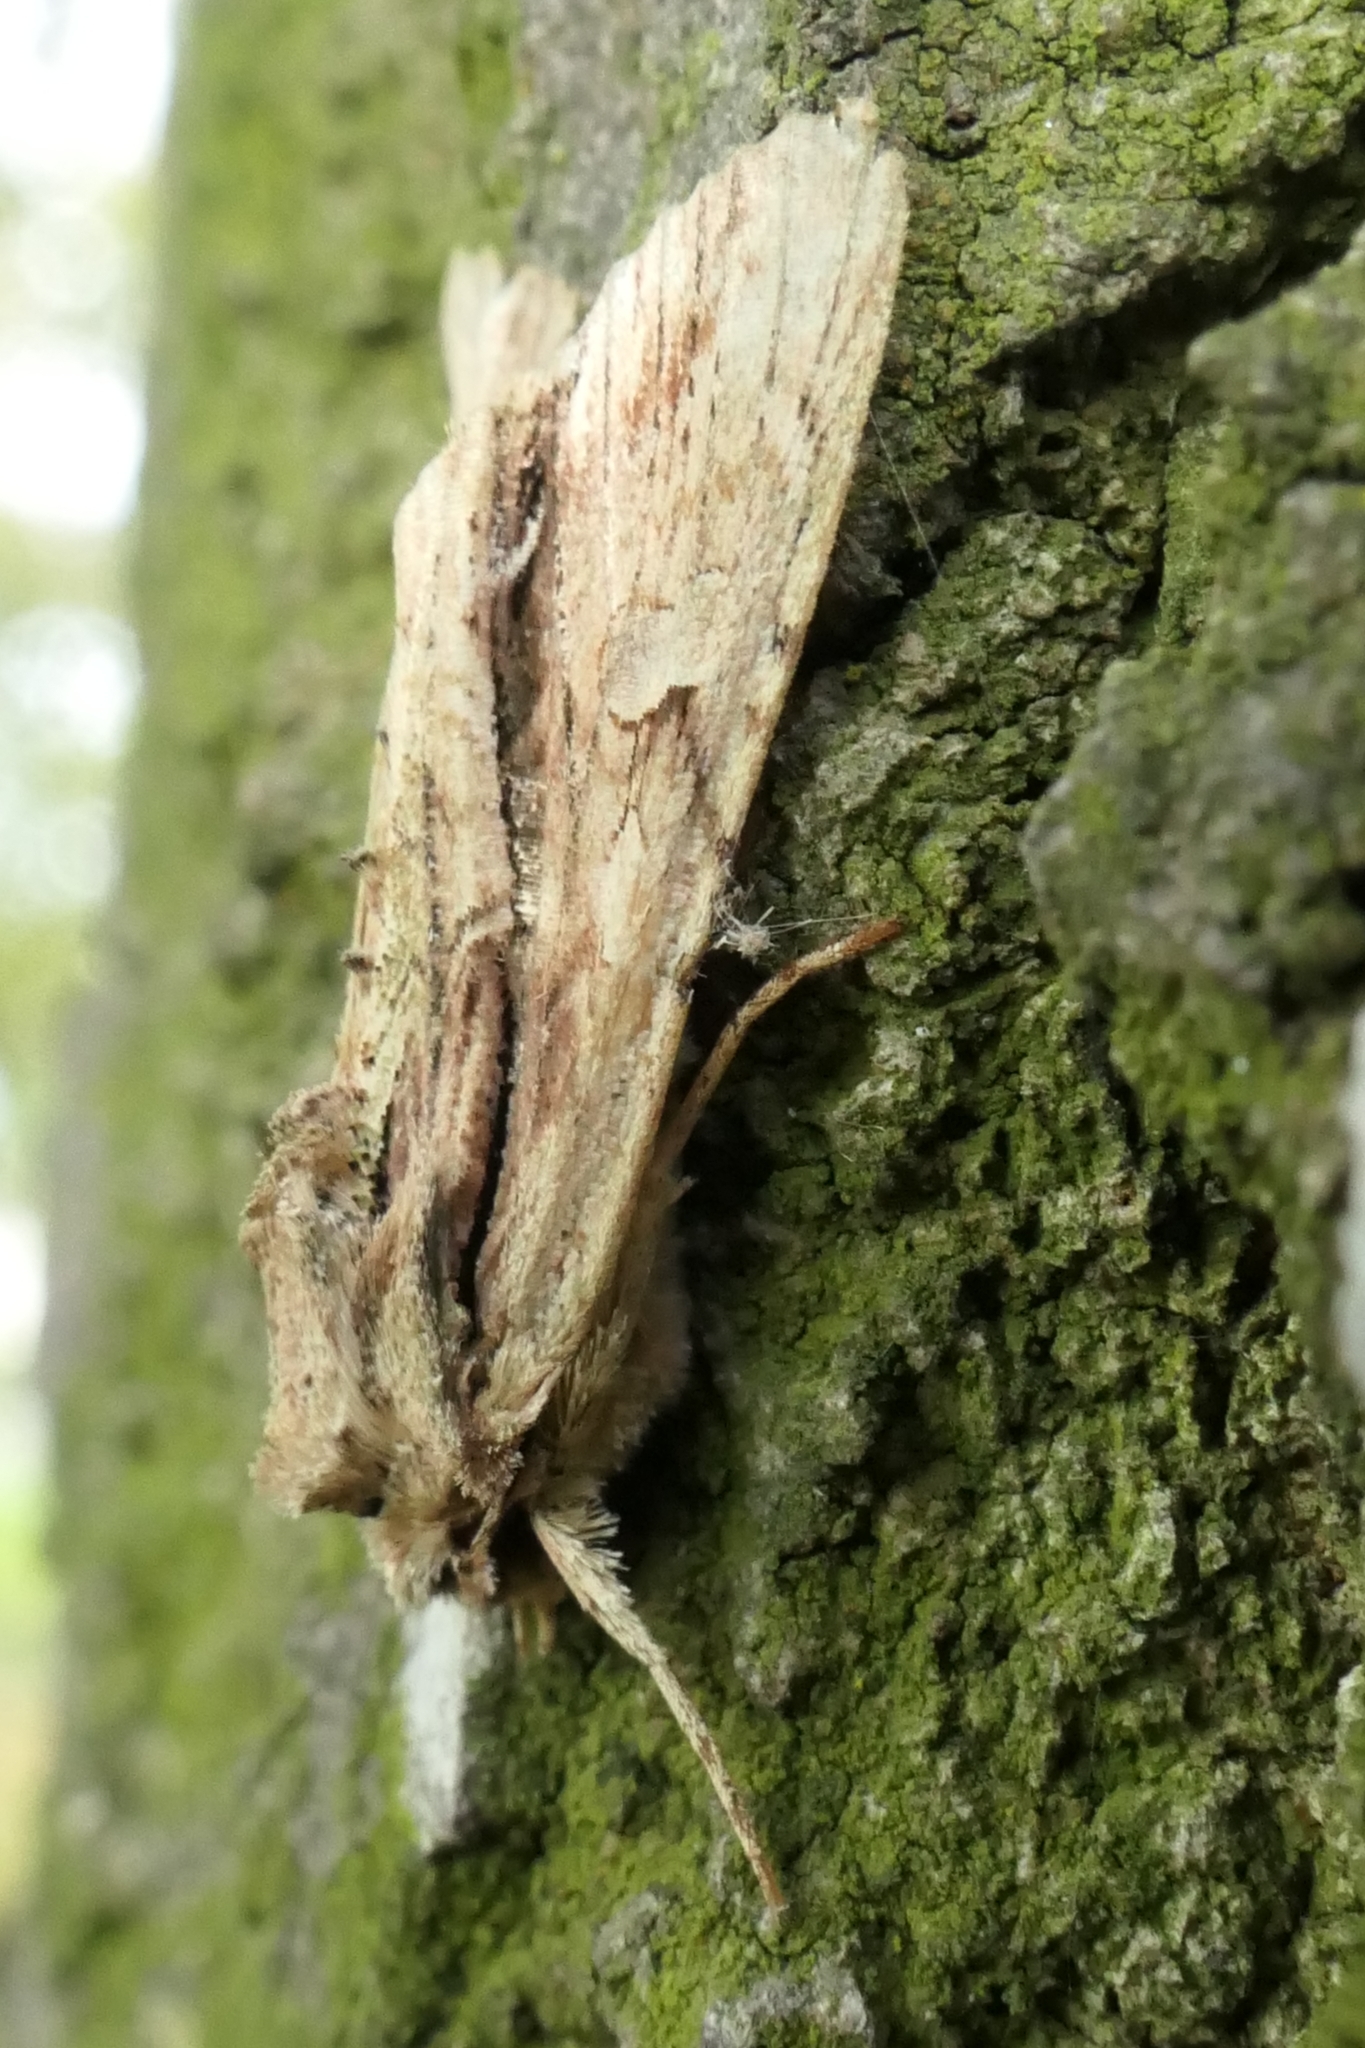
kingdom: Animalia
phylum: Arthropoda
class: Insecta
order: Lepidoptera
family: Noctuidae
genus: Meterana
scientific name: Meterana decorata
